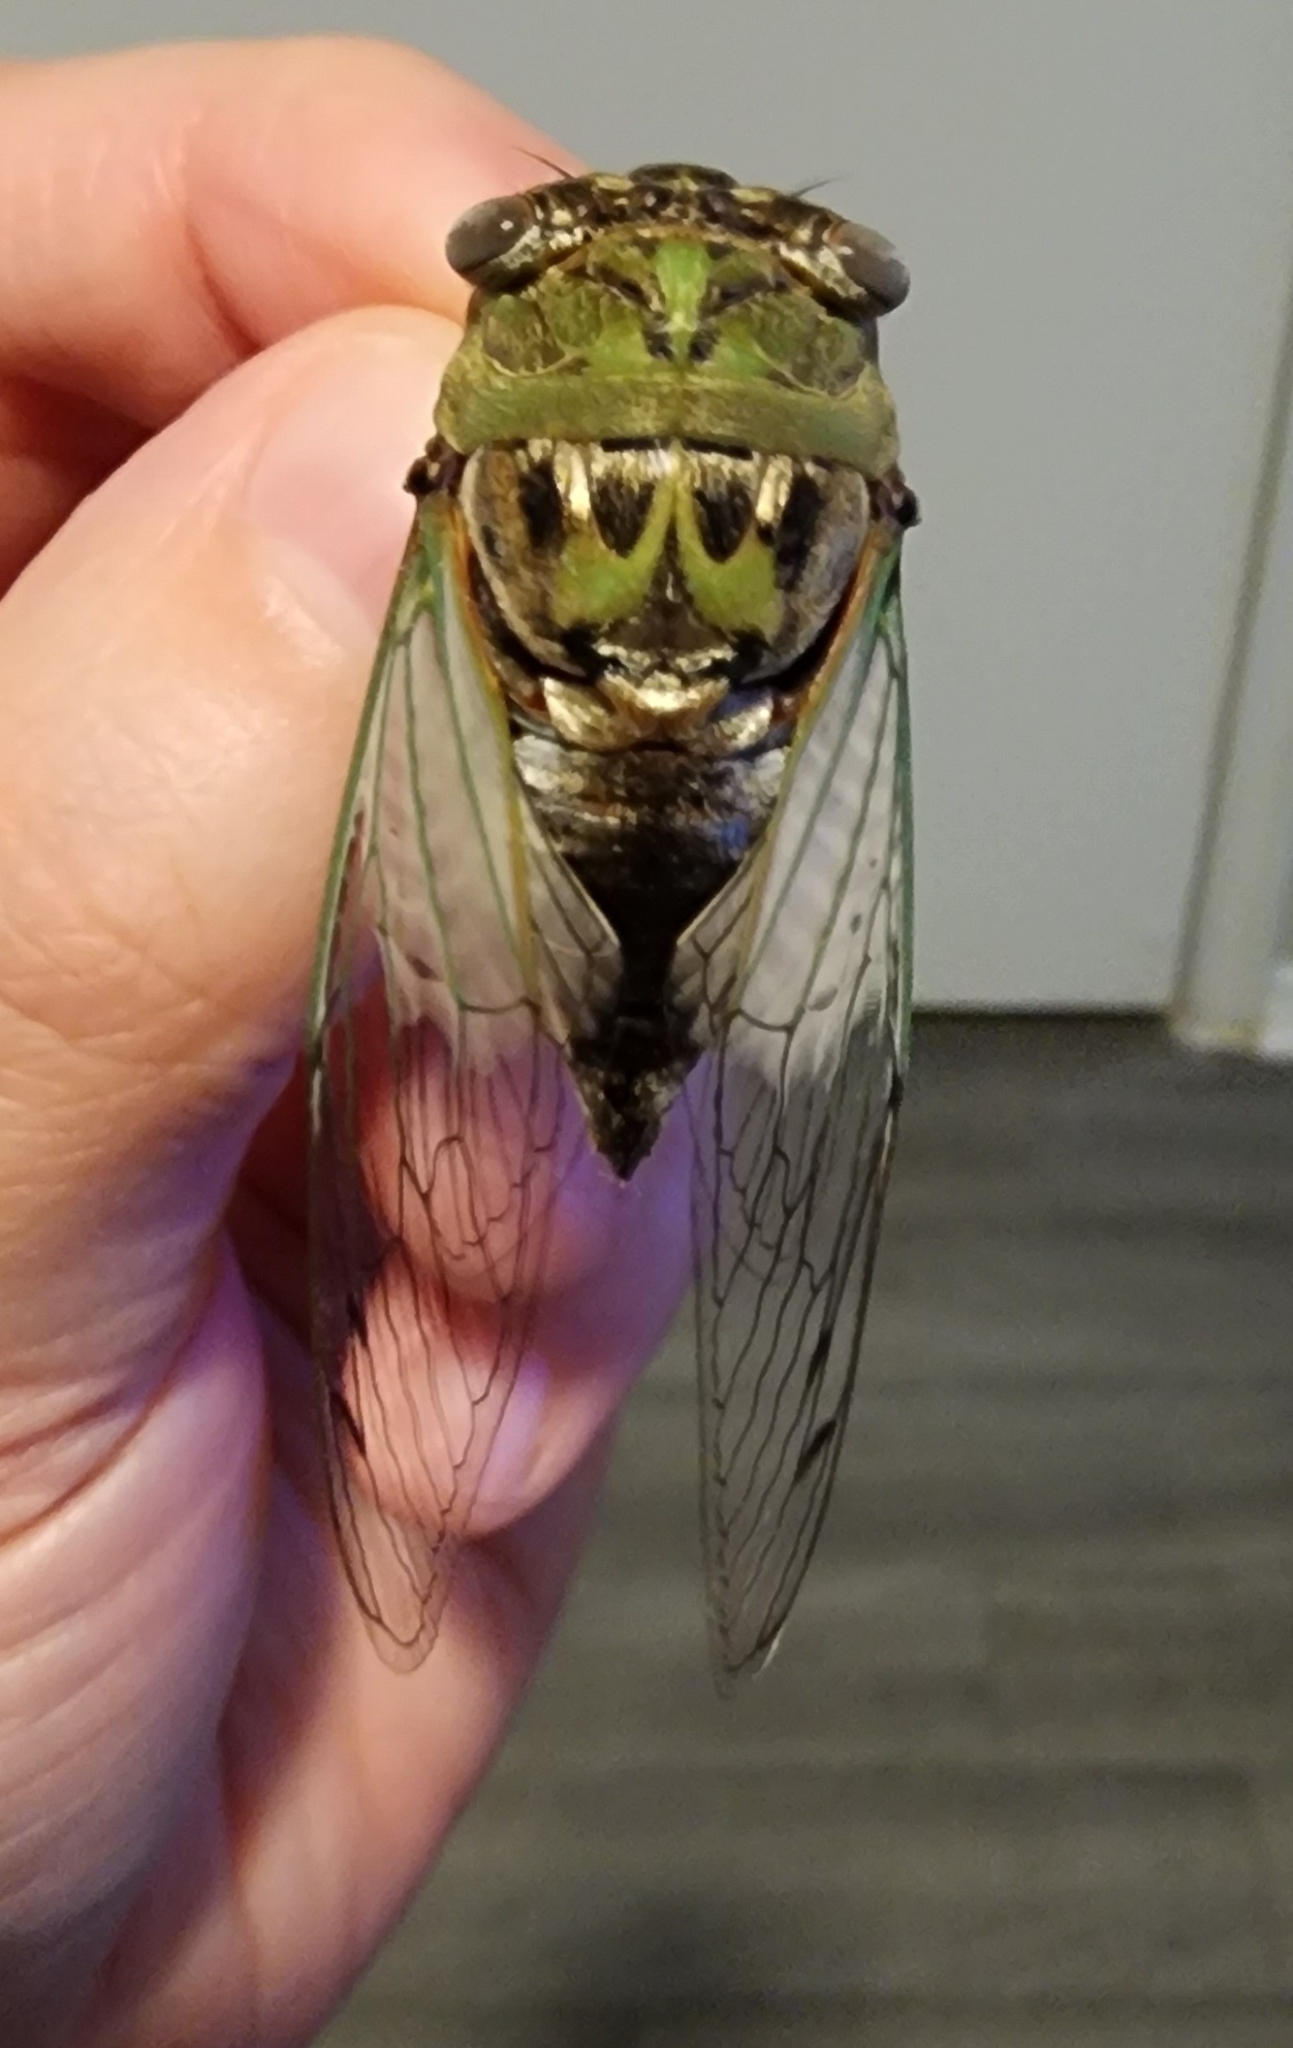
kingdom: Animalia
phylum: Arthropoda
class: Insecta
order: Hemiptera
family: Cicadidae
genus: Megatibicen
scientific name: Megatibicen resh
